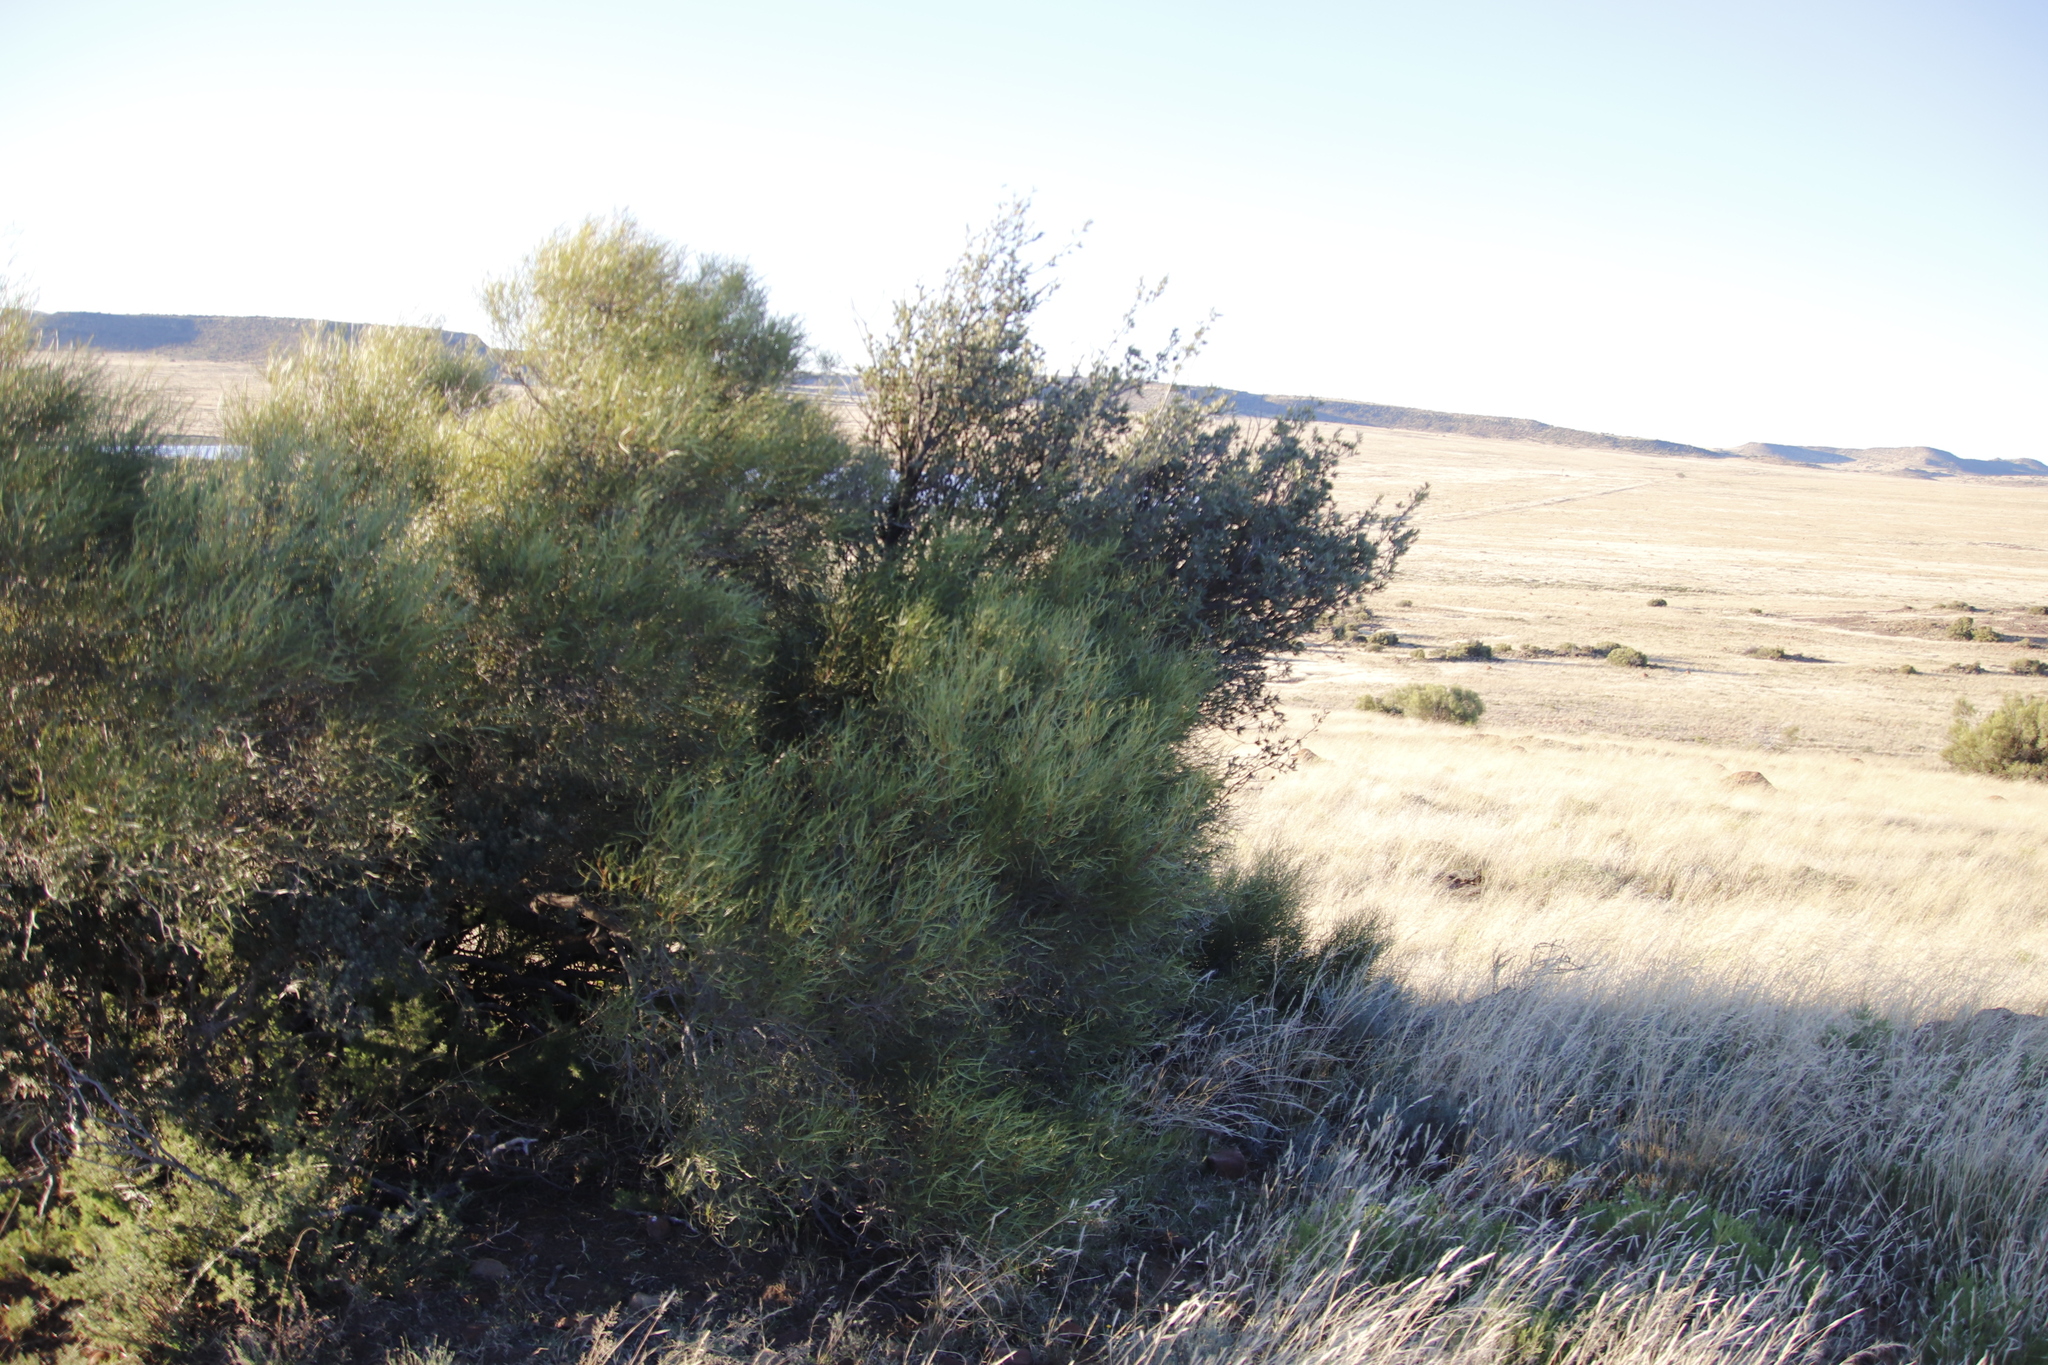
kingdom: Plantae
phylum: Tracheophyta
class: Magnoliopsida
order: Sapindales
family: Anacardiaceae
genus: Searsia
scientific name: Searsia erosa
